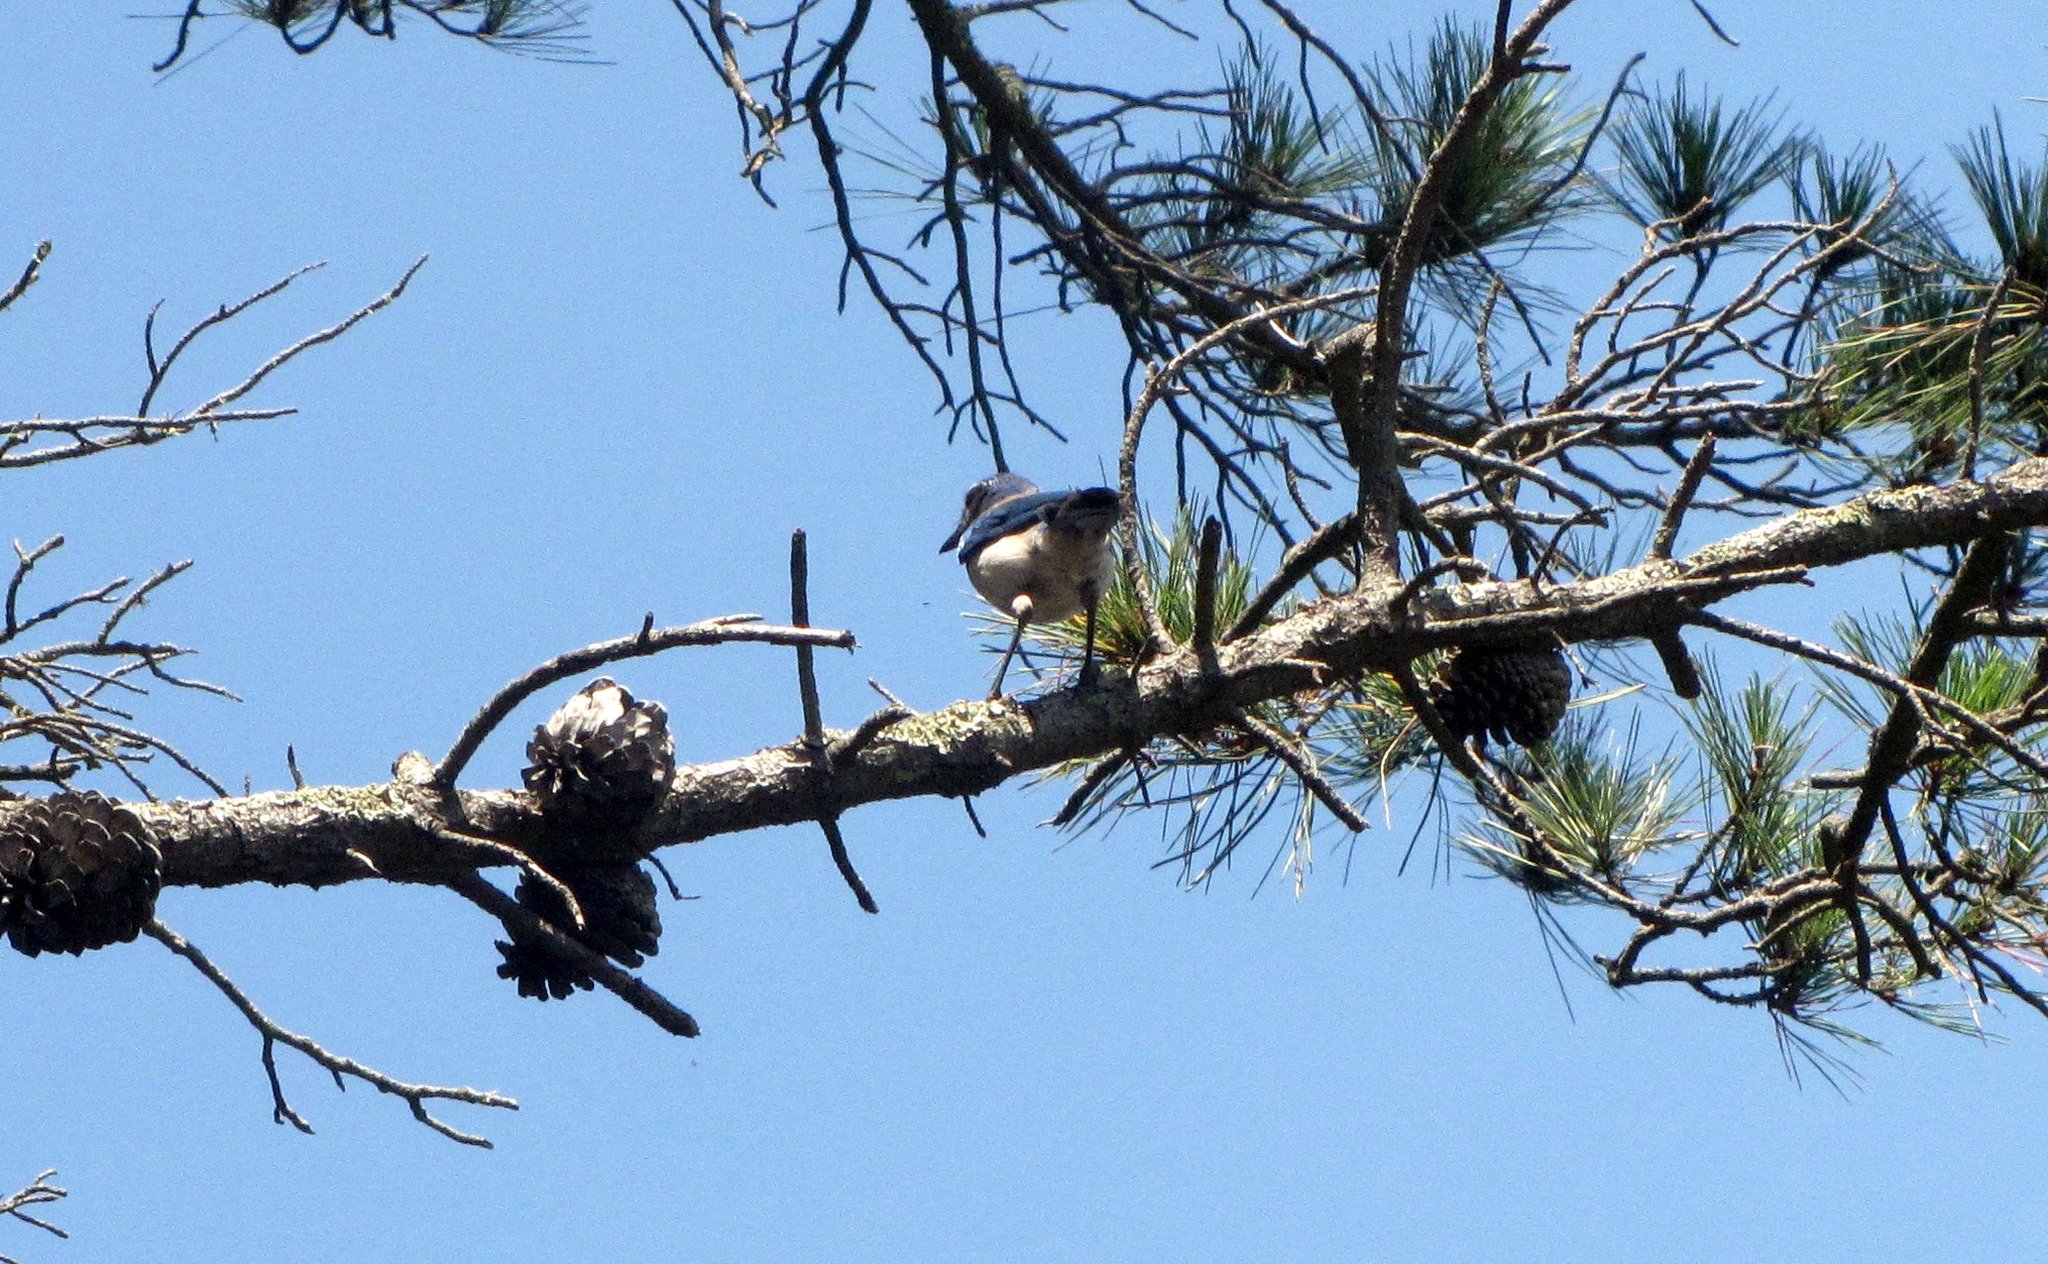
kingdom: Animalia
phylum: Chordata
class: Aves
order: Passeriformes
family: Corvidae
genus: Aphelocoma
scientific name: Aphelocoma californica
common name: California scrub-jay
